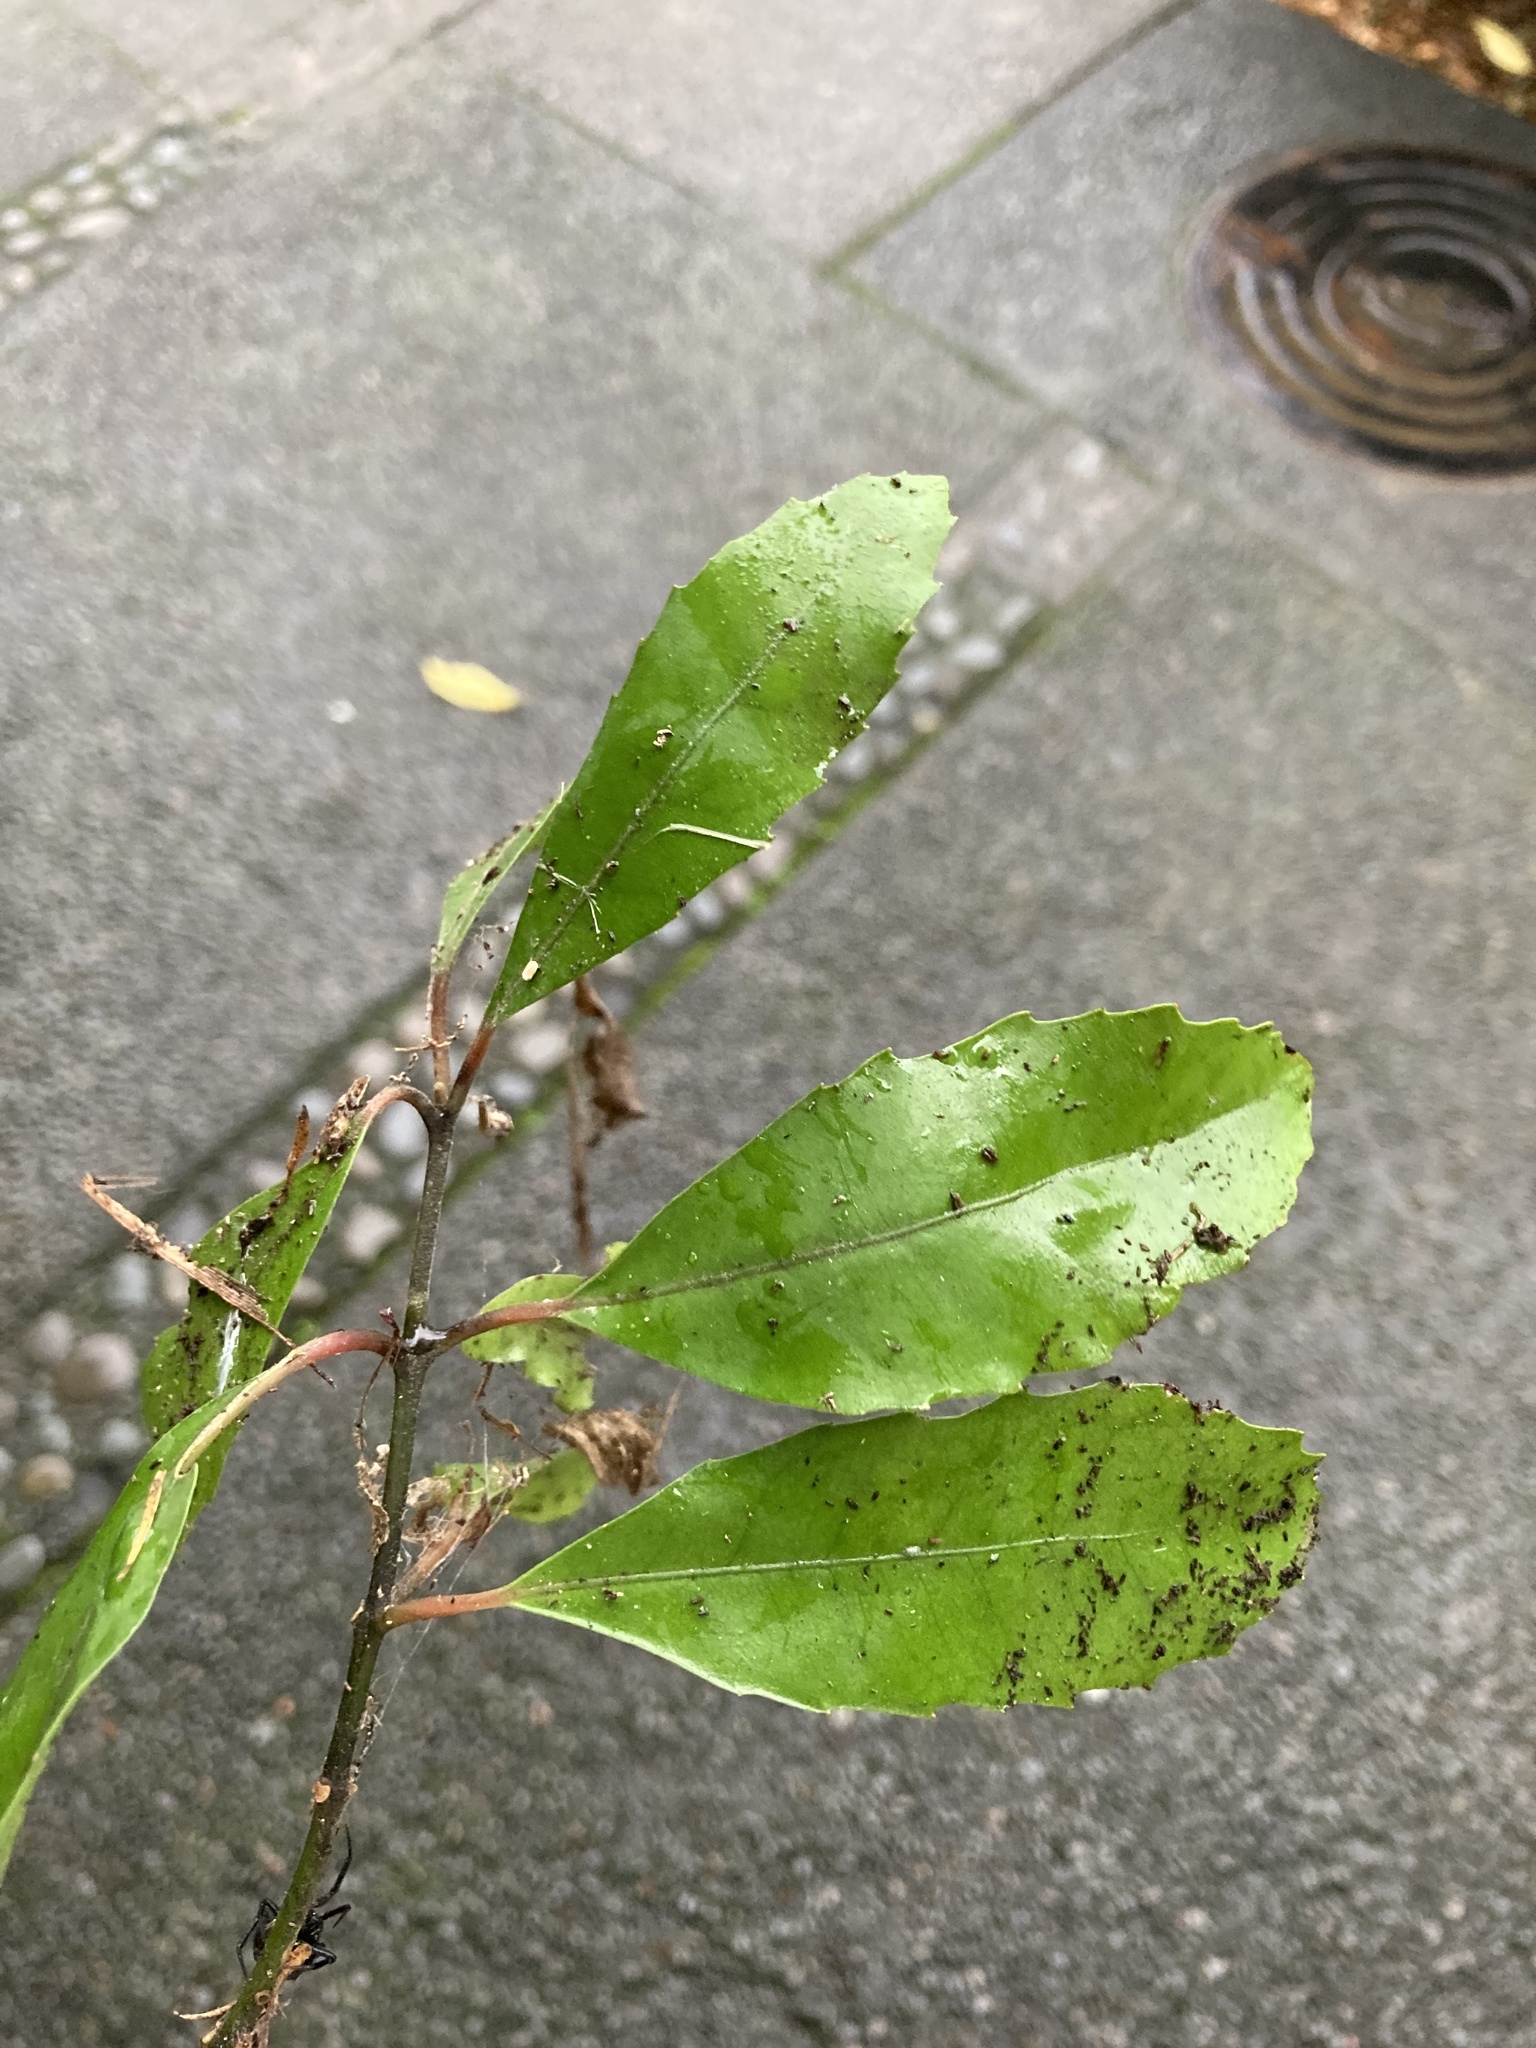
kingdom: Plantae
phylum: Tracheophyta
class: Magnoliopsida
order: Laurales
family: Monimiaceae
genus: Hedycarya
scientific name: Hedycarya arborea
